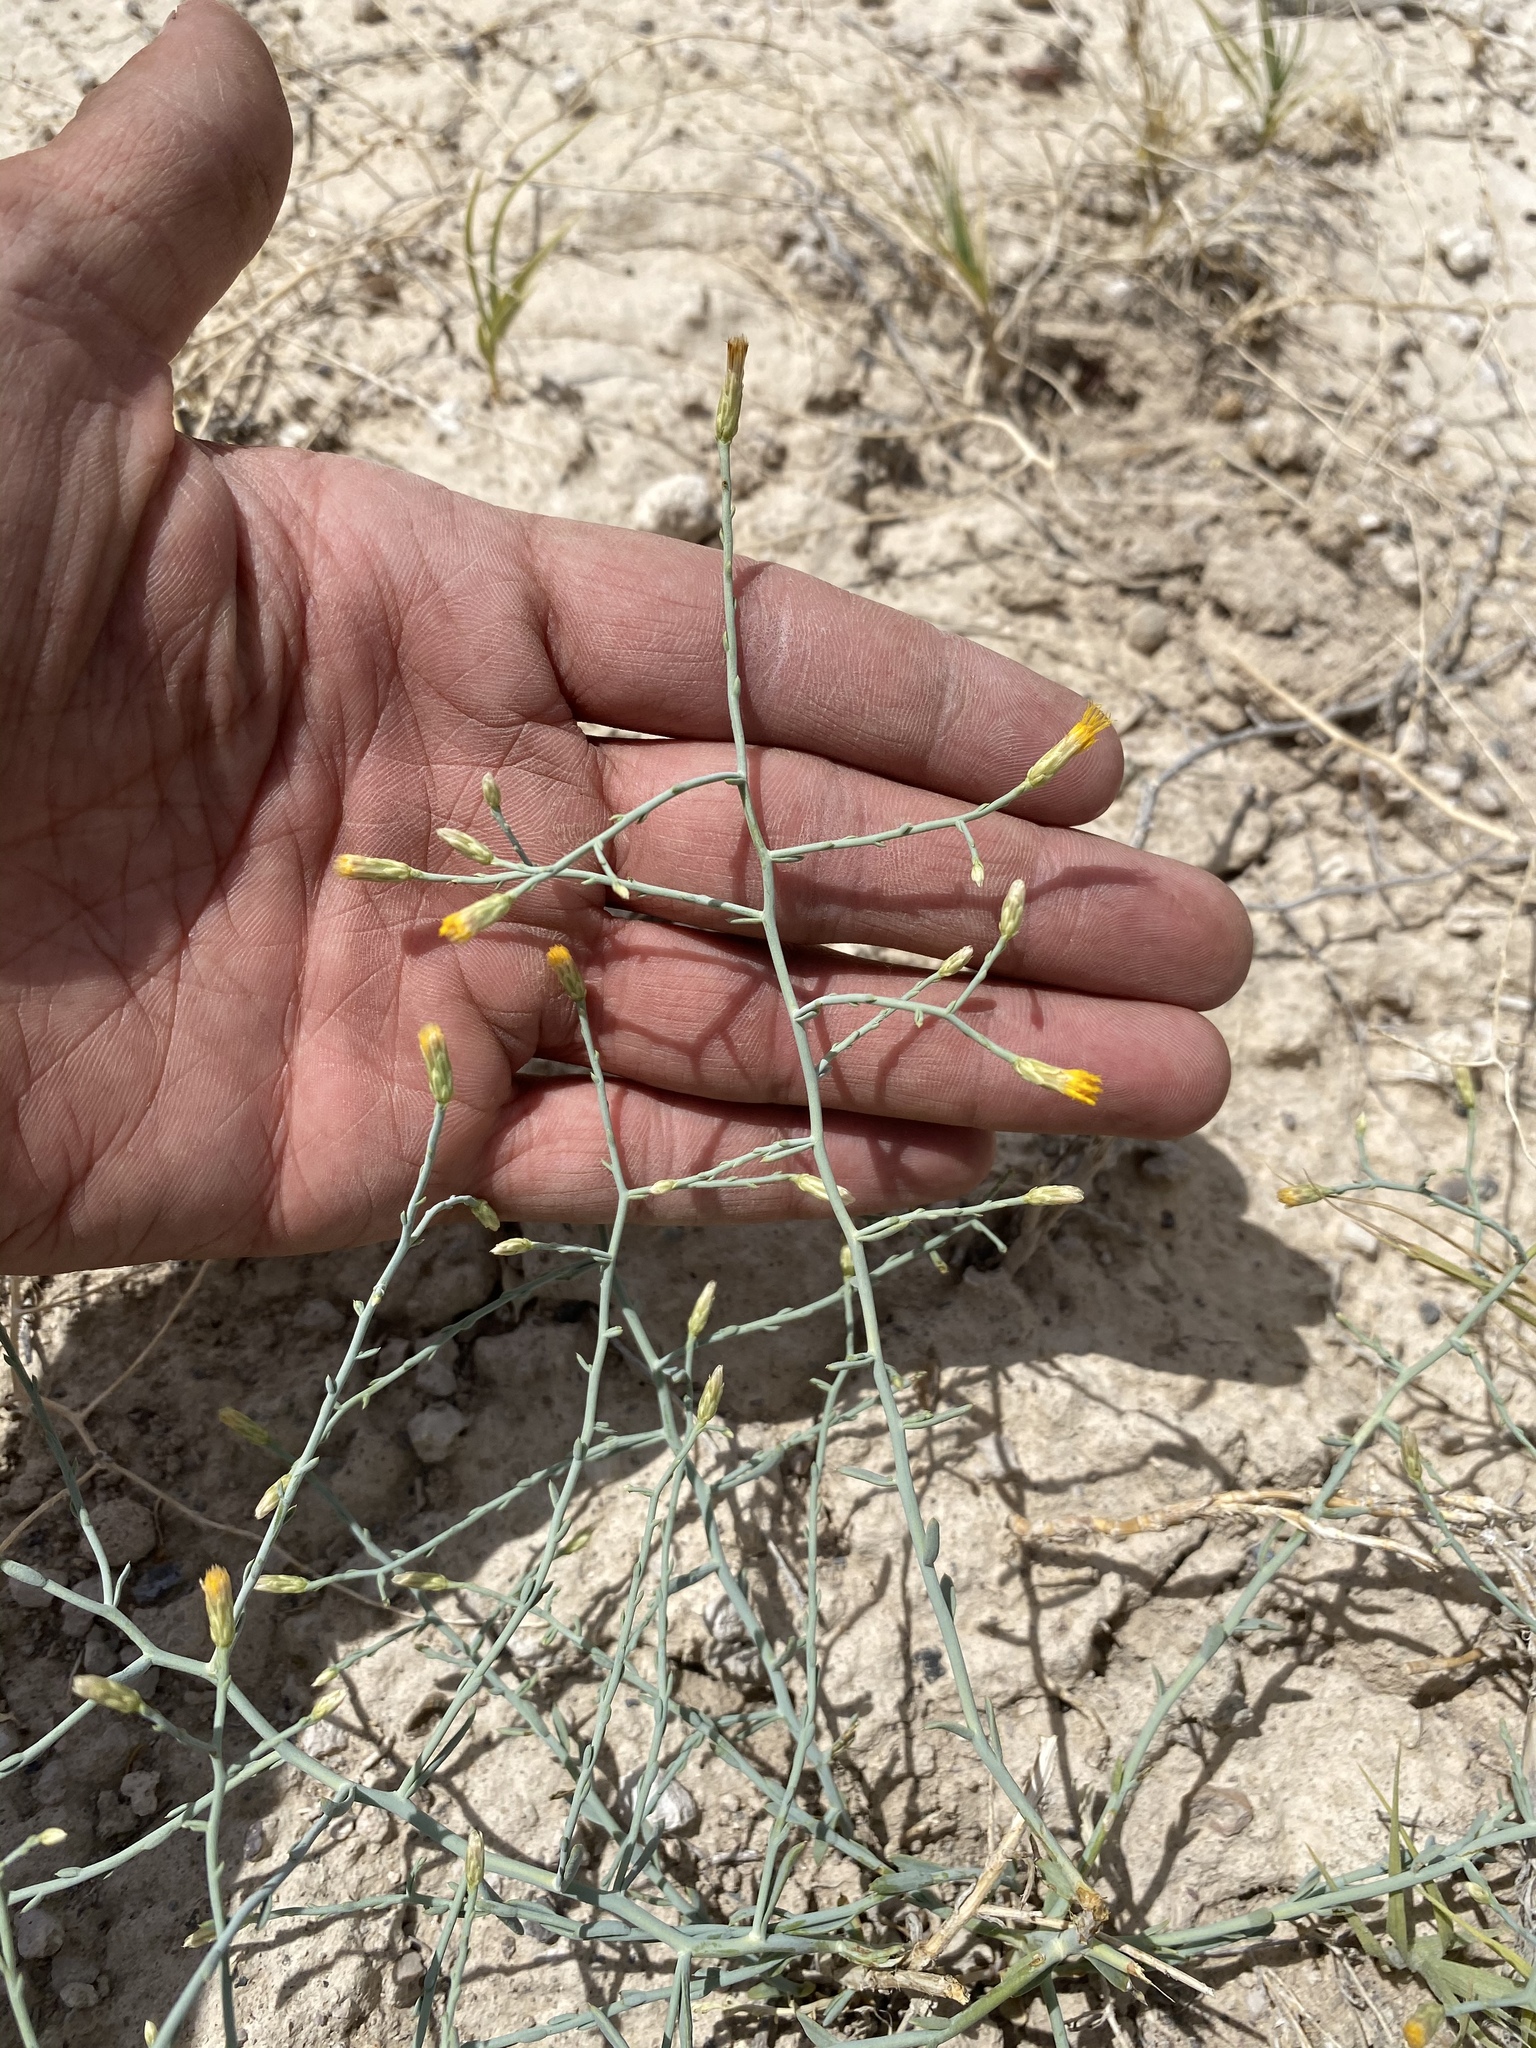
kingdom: Plantae
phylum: Tracheophyta
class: Magnoliopsida
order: Asterales
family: Asteraceae
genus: Leucosyris
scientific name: Leucosyris carnosa
